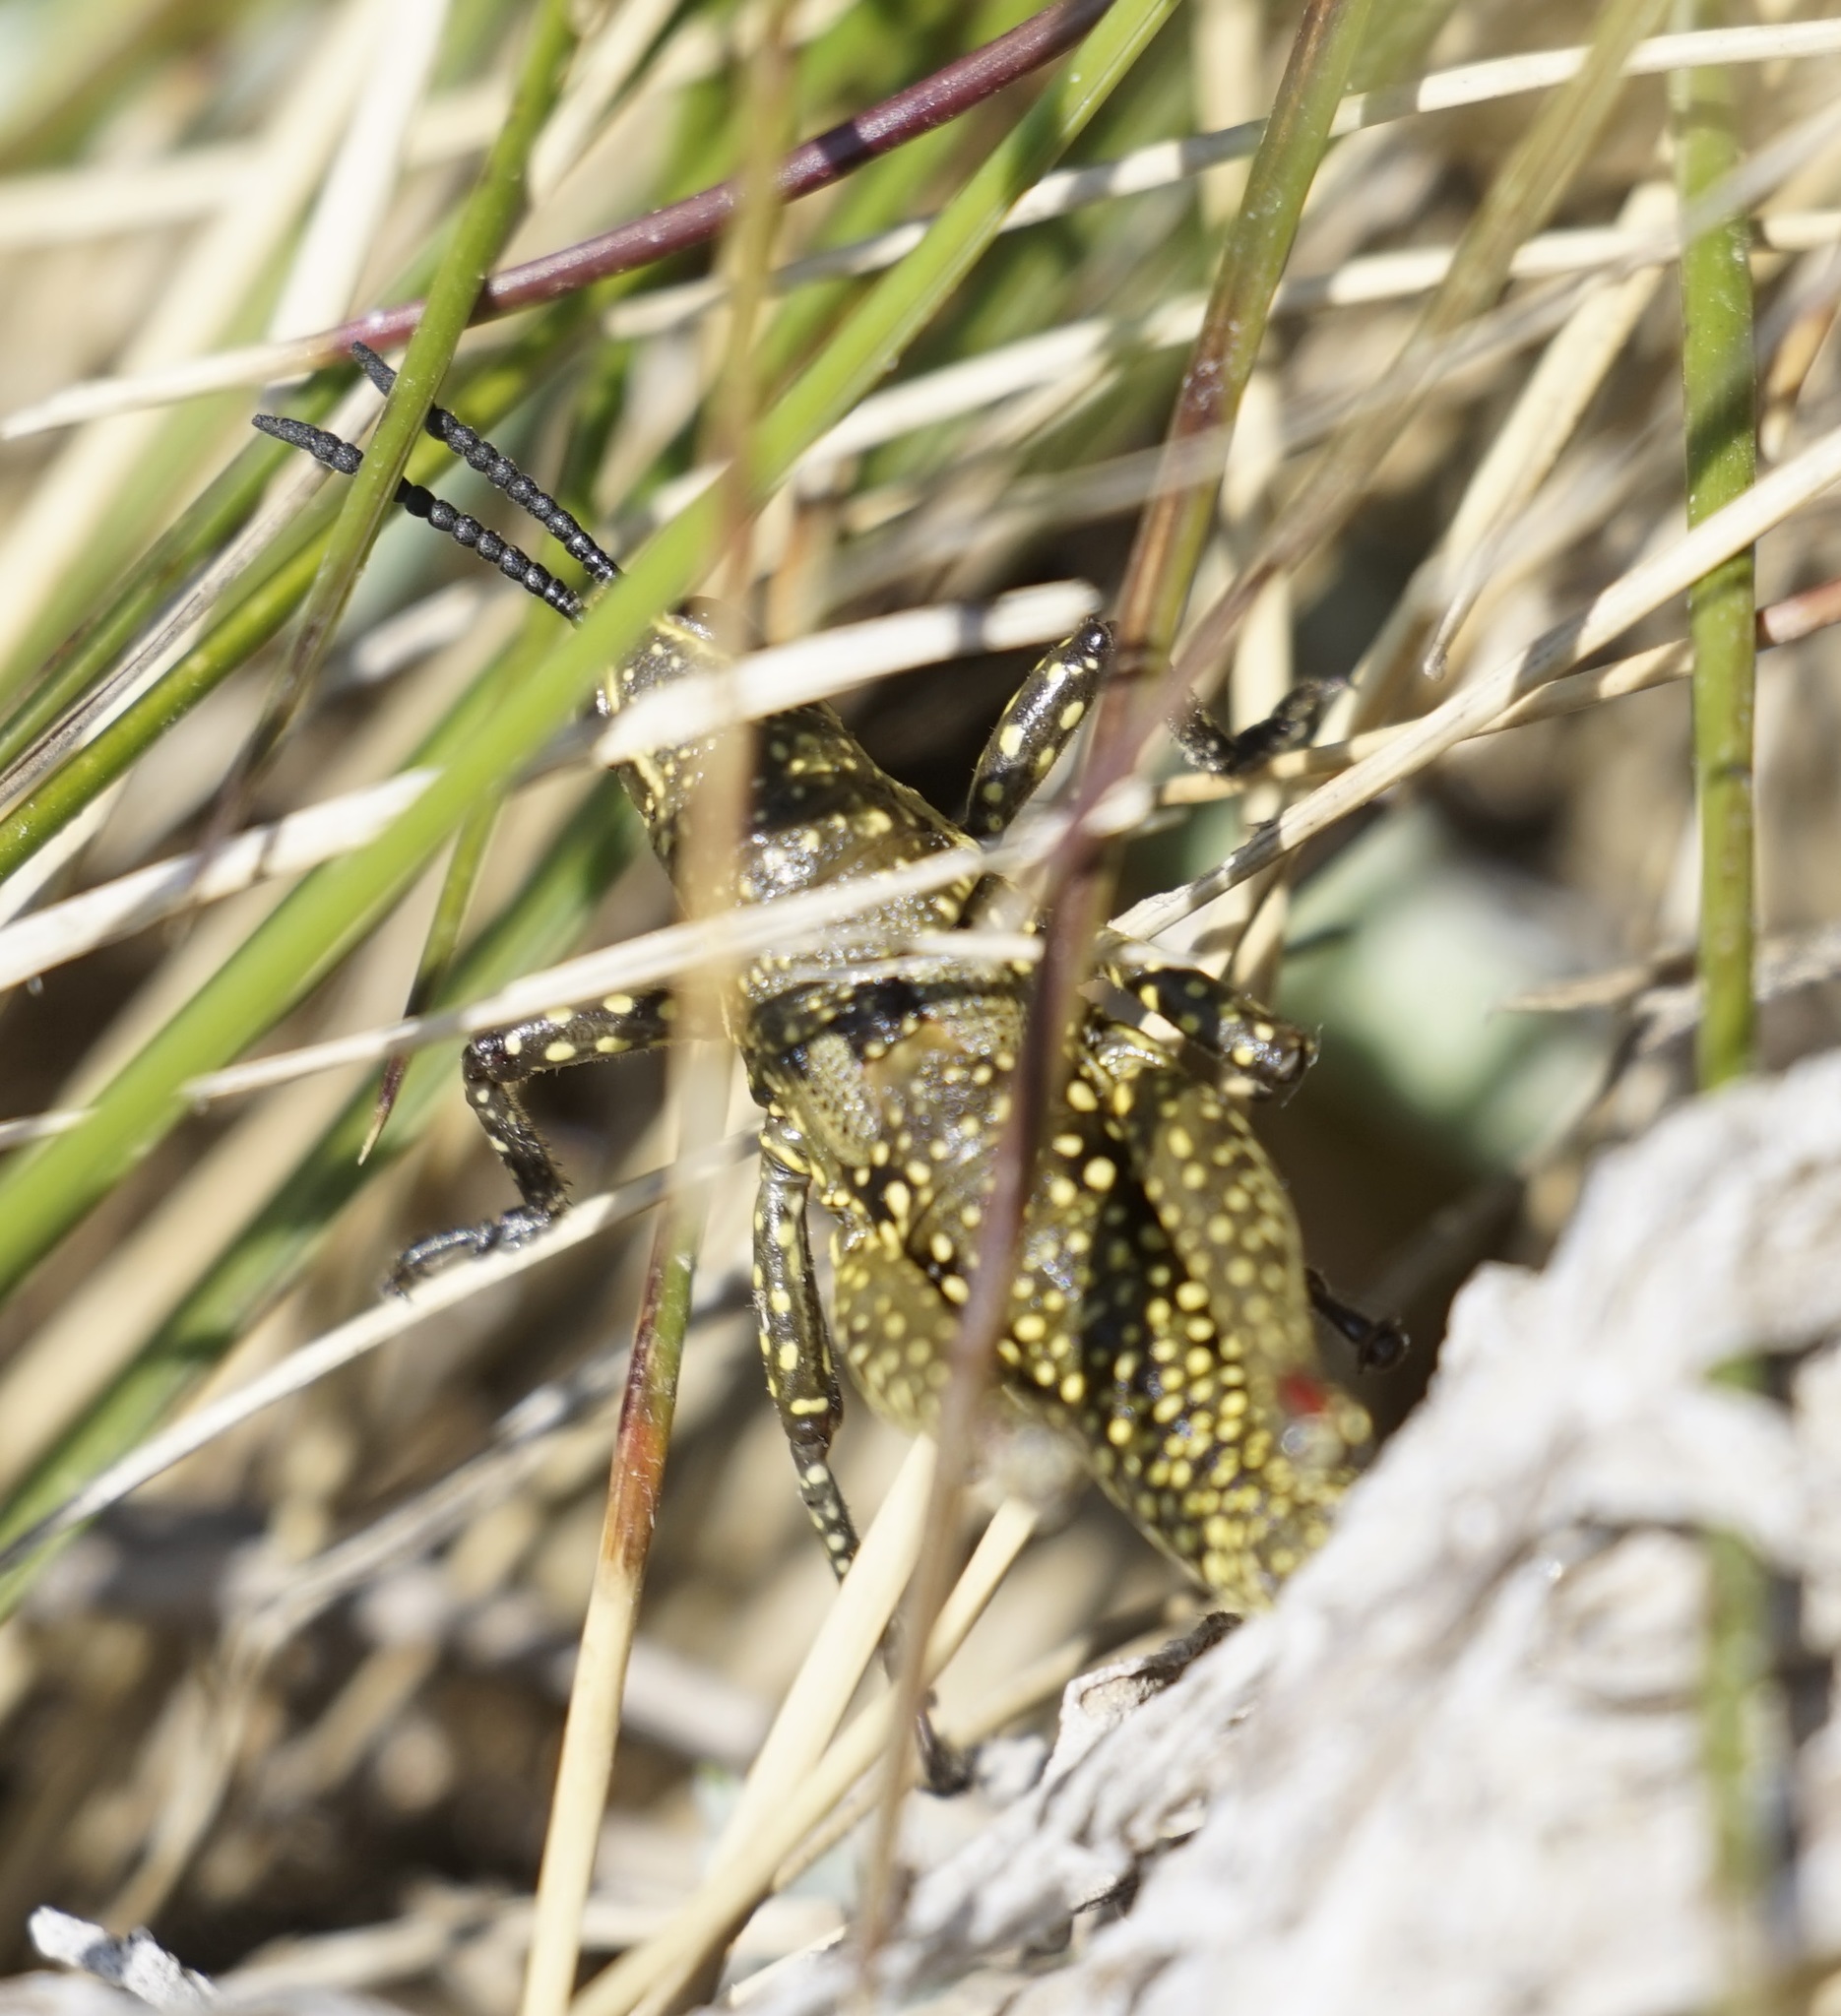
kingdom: Animalia
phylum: Arthropoda
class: Insecta
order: Orthoptera
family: Pyrgomorphidae
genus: Monistria
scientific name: Monistria concinna
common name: Southern pyrgomorph
